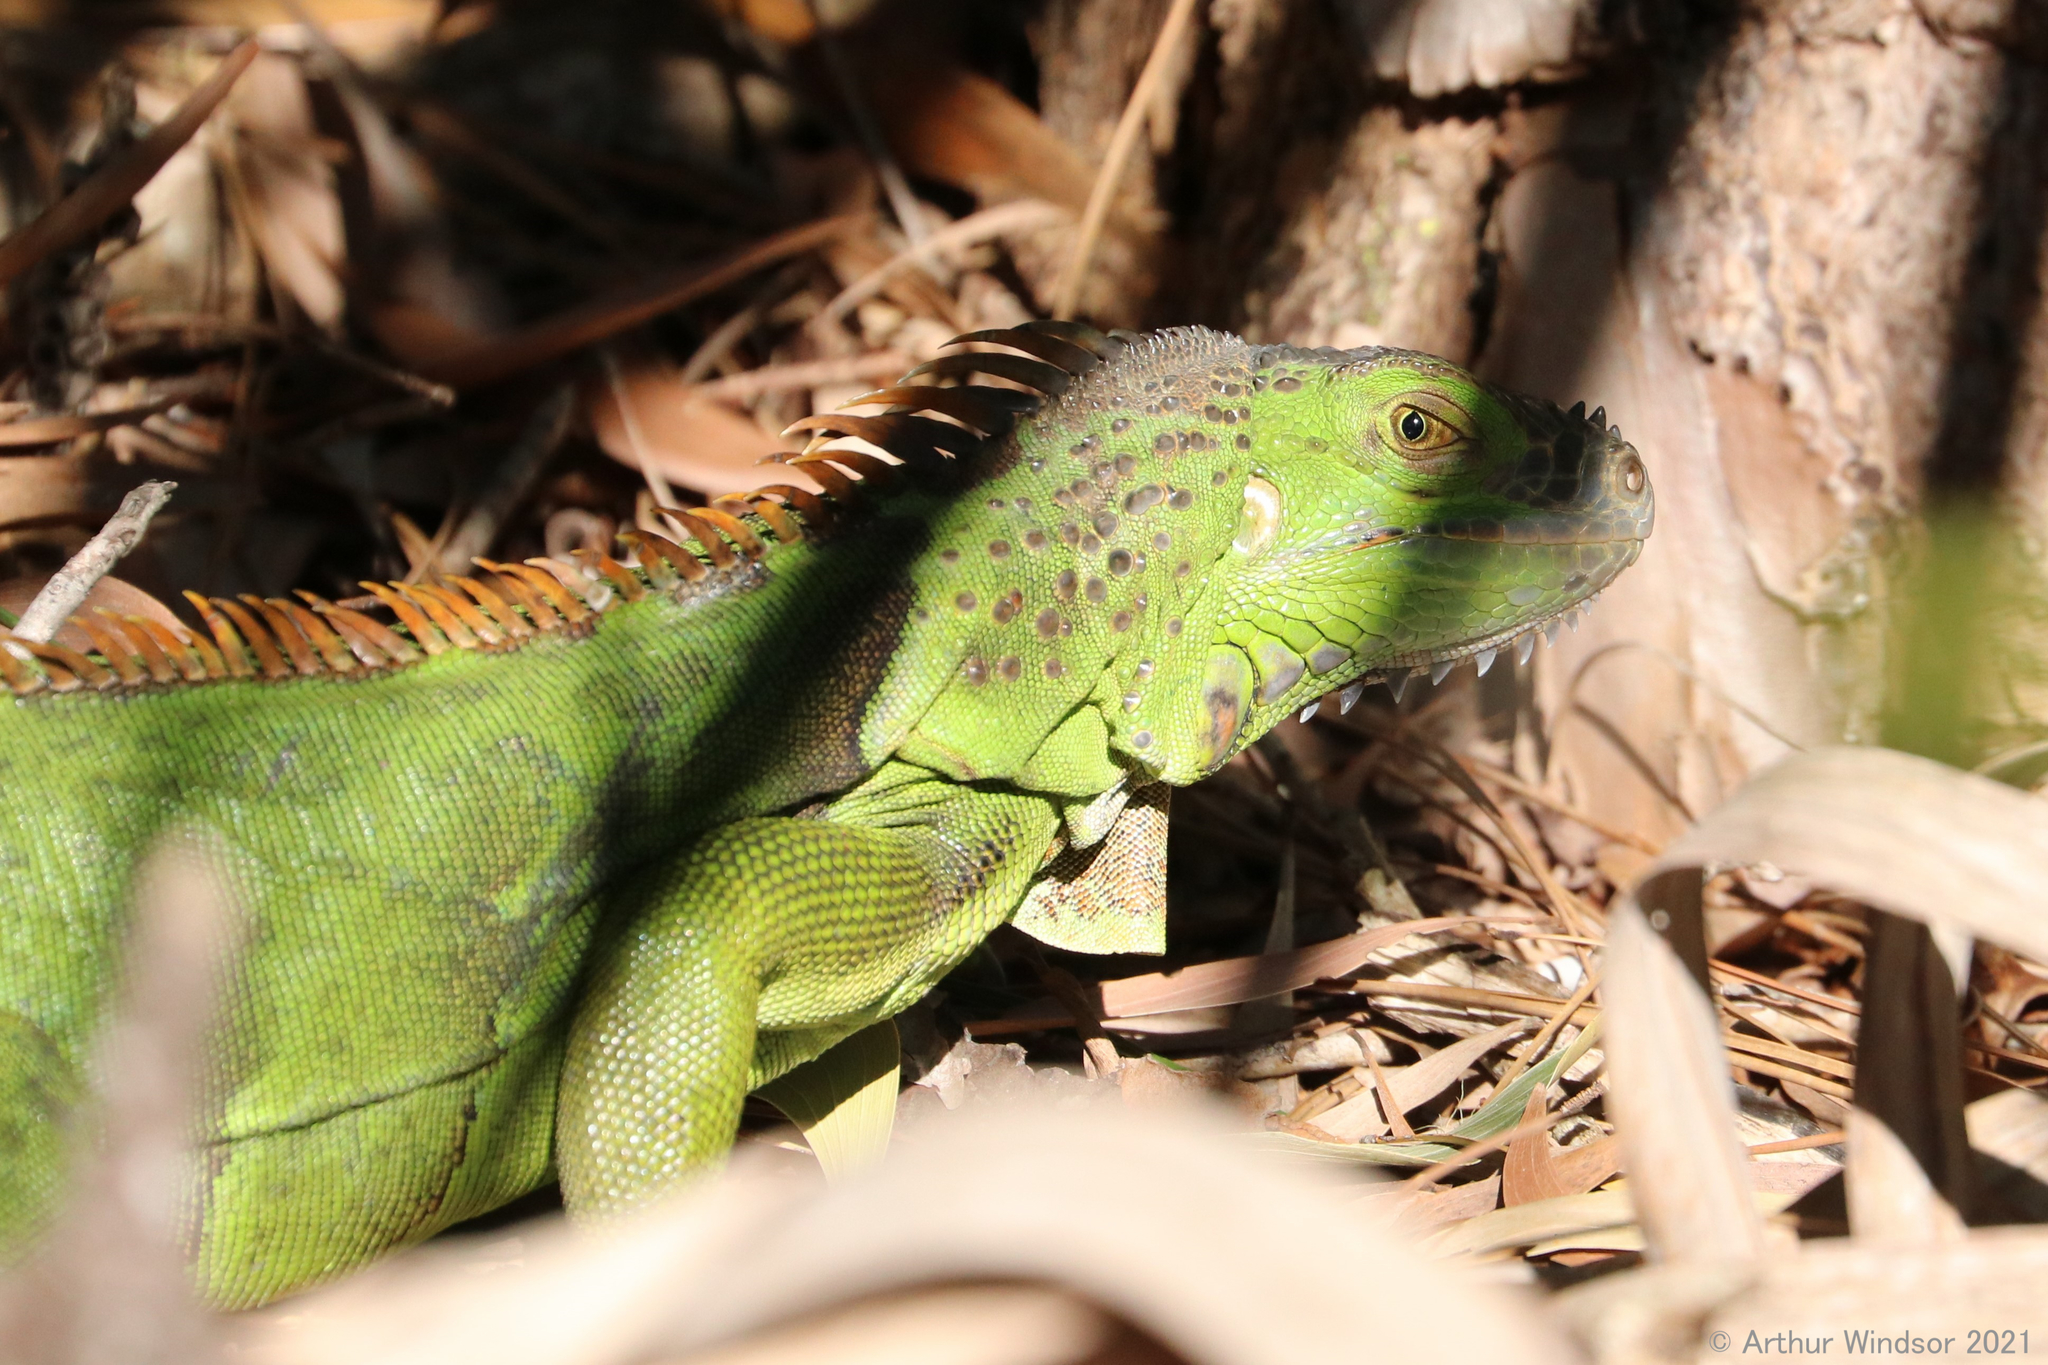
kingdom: Animalia
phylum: Chordata
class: Squamata
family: Iguanidae
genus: Iguana
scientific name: Iguana iguana
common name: Green iguana
